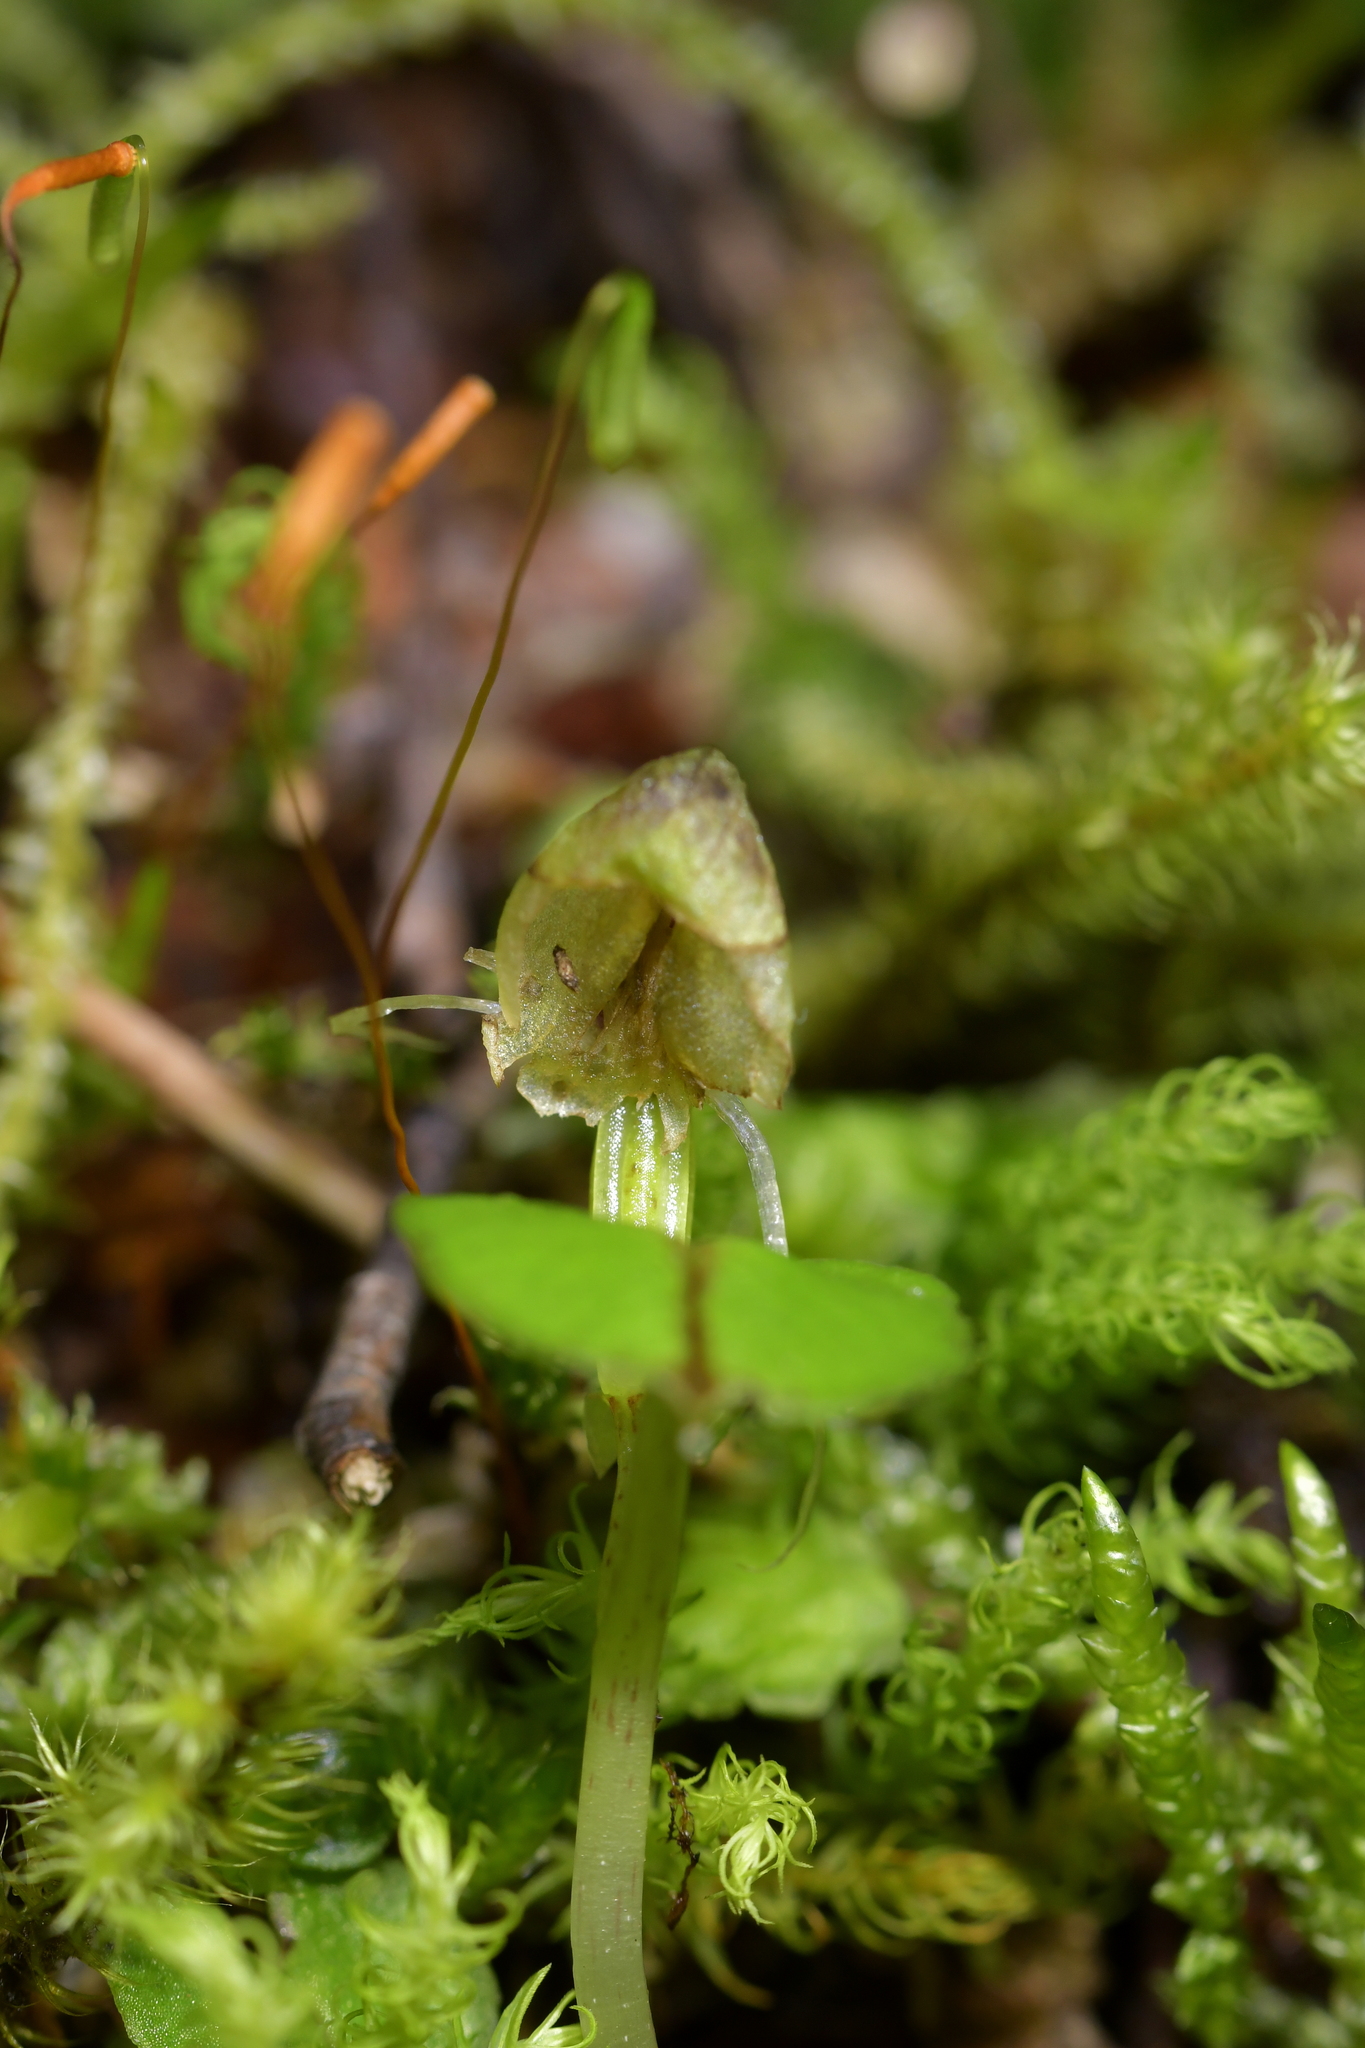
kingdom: Plantae
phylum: Tracheophyta
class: Liliopsida
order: Asparagales
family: Orchidaceae
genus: Corybas
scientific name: Corybas walliae
